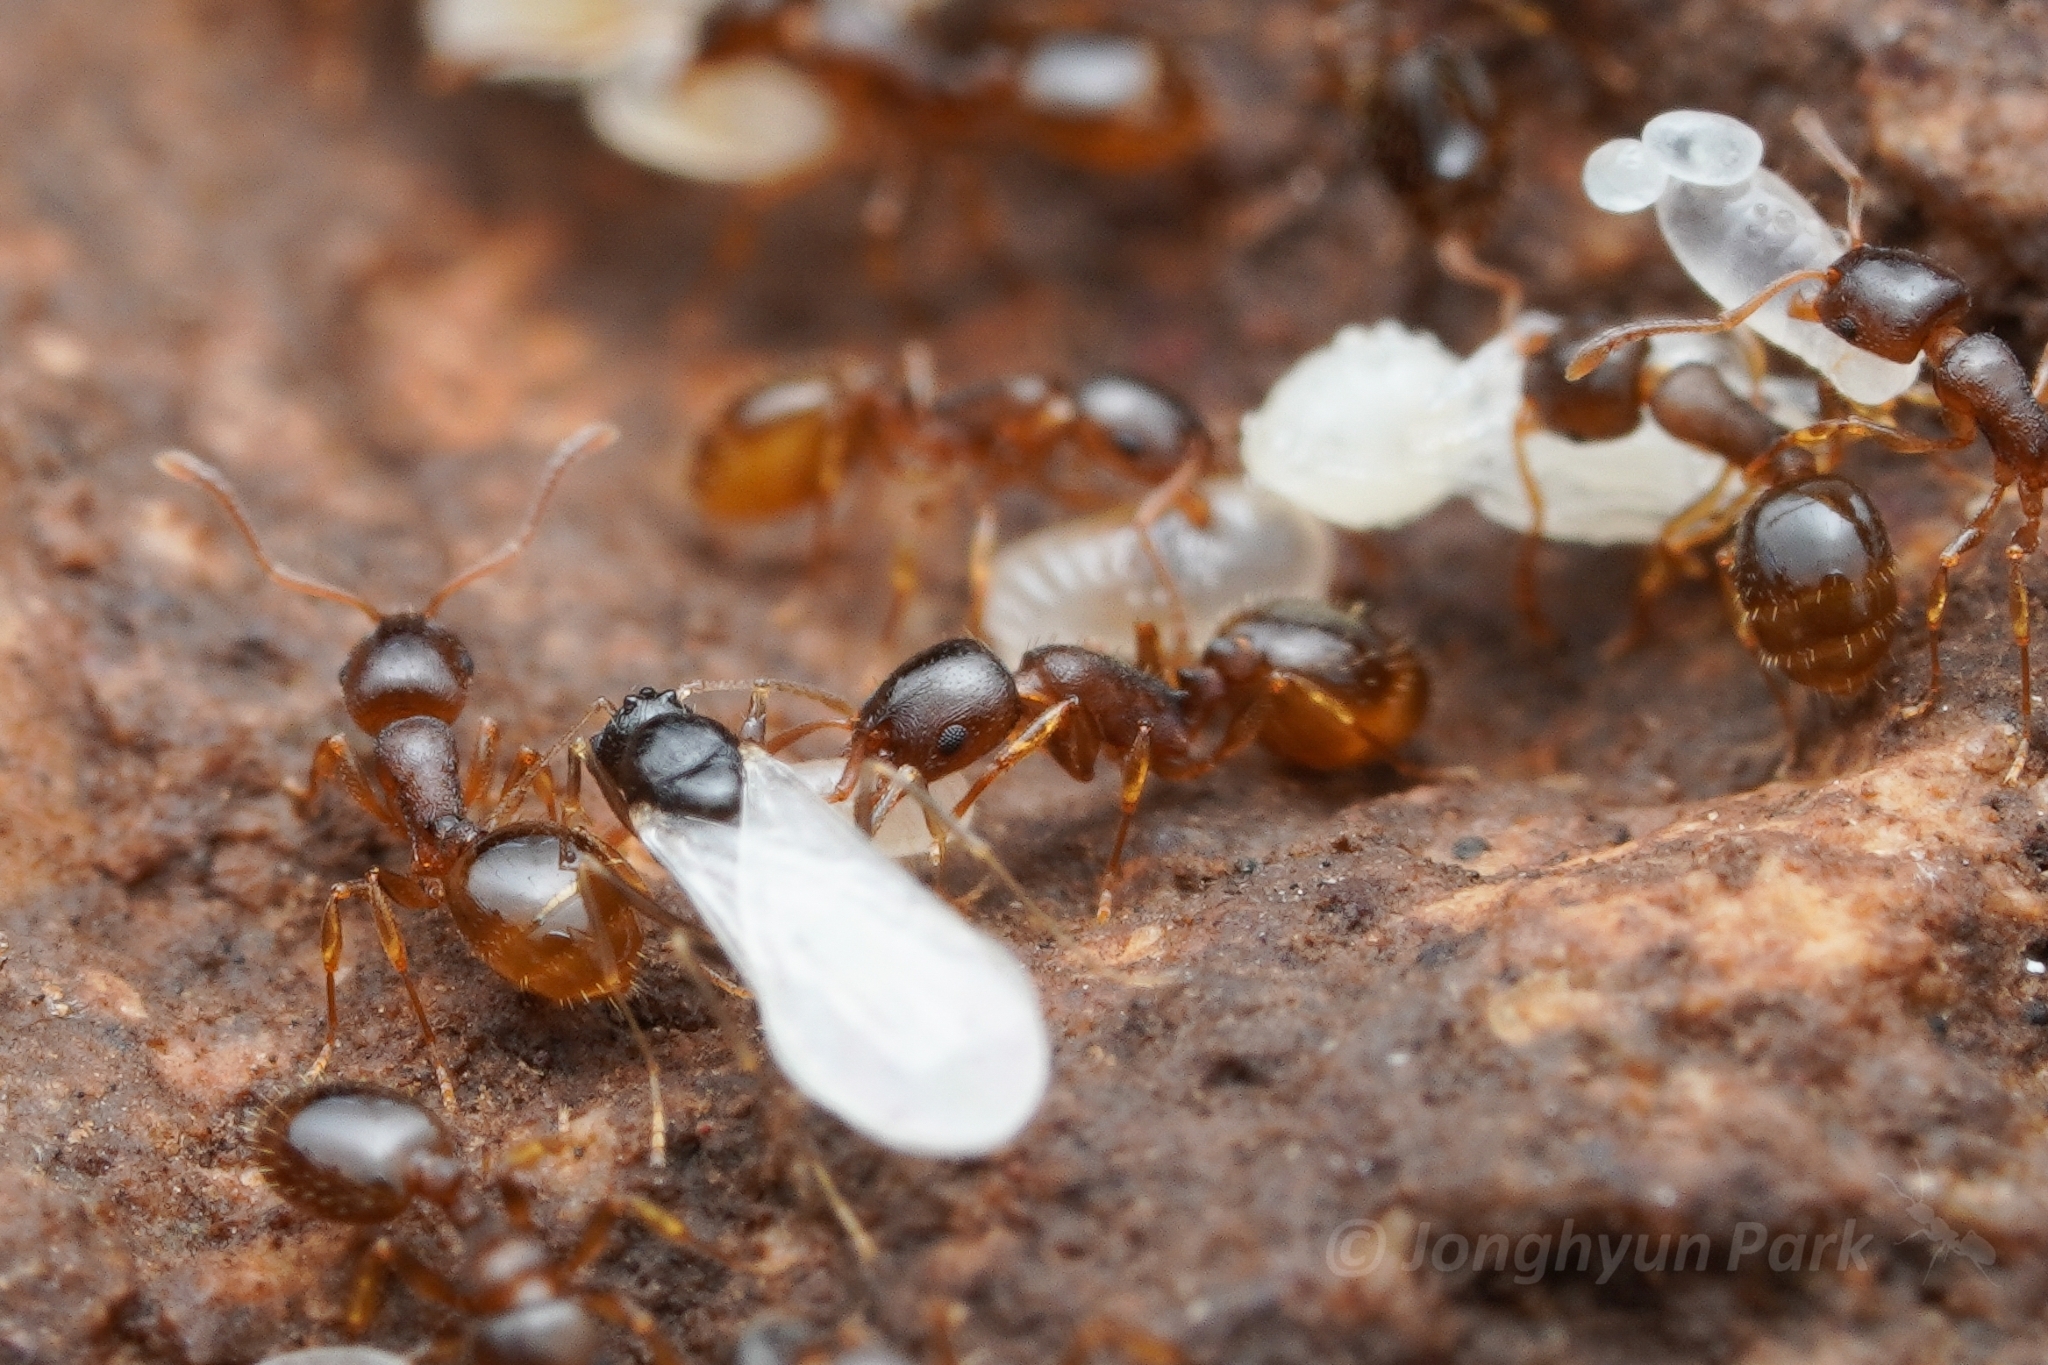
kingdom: Animalia
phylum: Arthropoda
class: Insecta
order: Hymenoptera
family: Formicidae
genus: Leptothorax
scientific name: Leptothorax nitens
